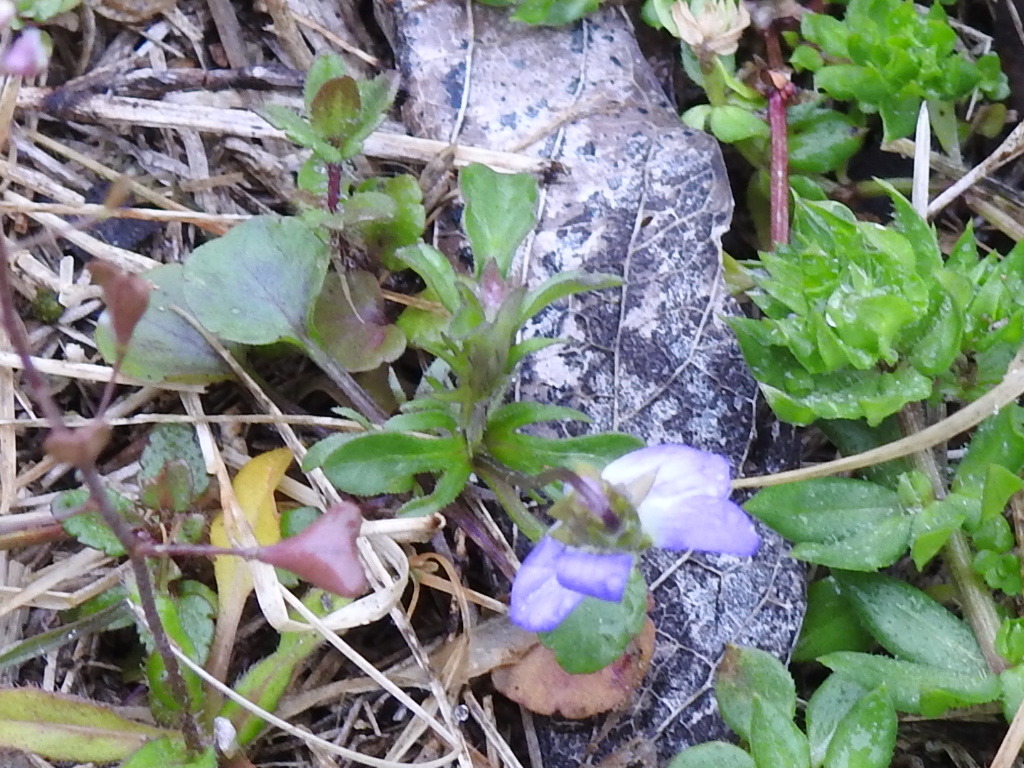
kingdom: Plantae
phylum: Tracheophyta
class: Magnoliopsida
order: Malpighiales
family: Violaceae
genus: Viola
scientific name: Viola rafinesquei
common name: American field pansy
